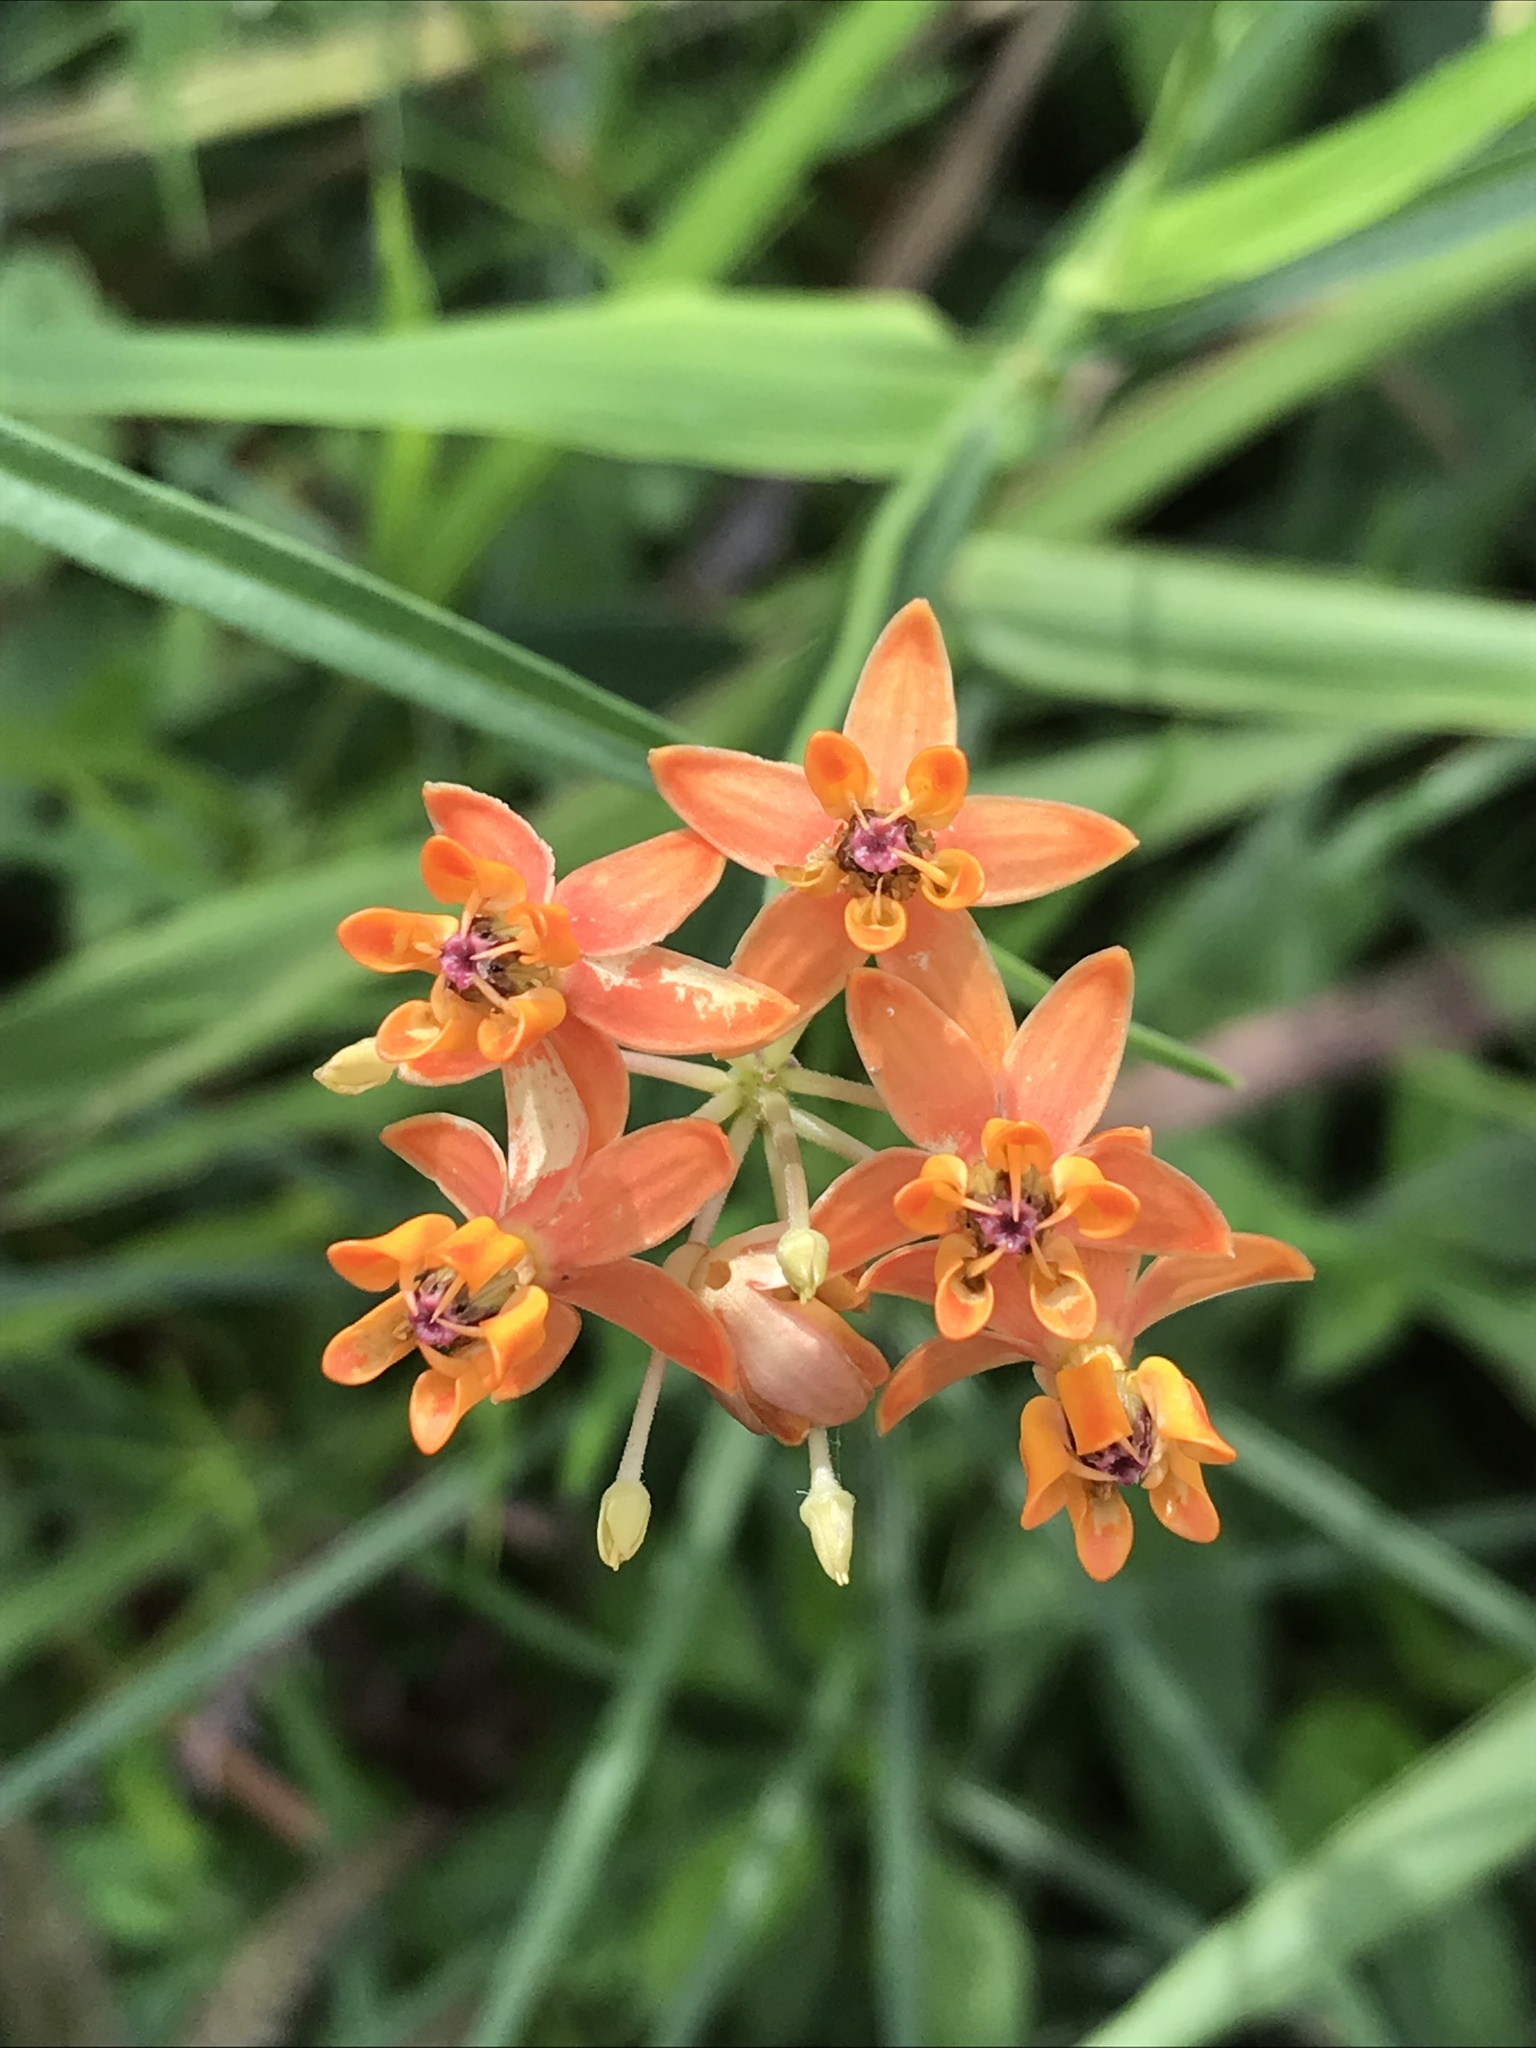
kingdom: Plantae
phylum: Tracheophyta
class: Magnoliopsida
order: Gentianales
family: Apocynaceae
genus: Asclepias
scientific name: Asclepias lanceolata
